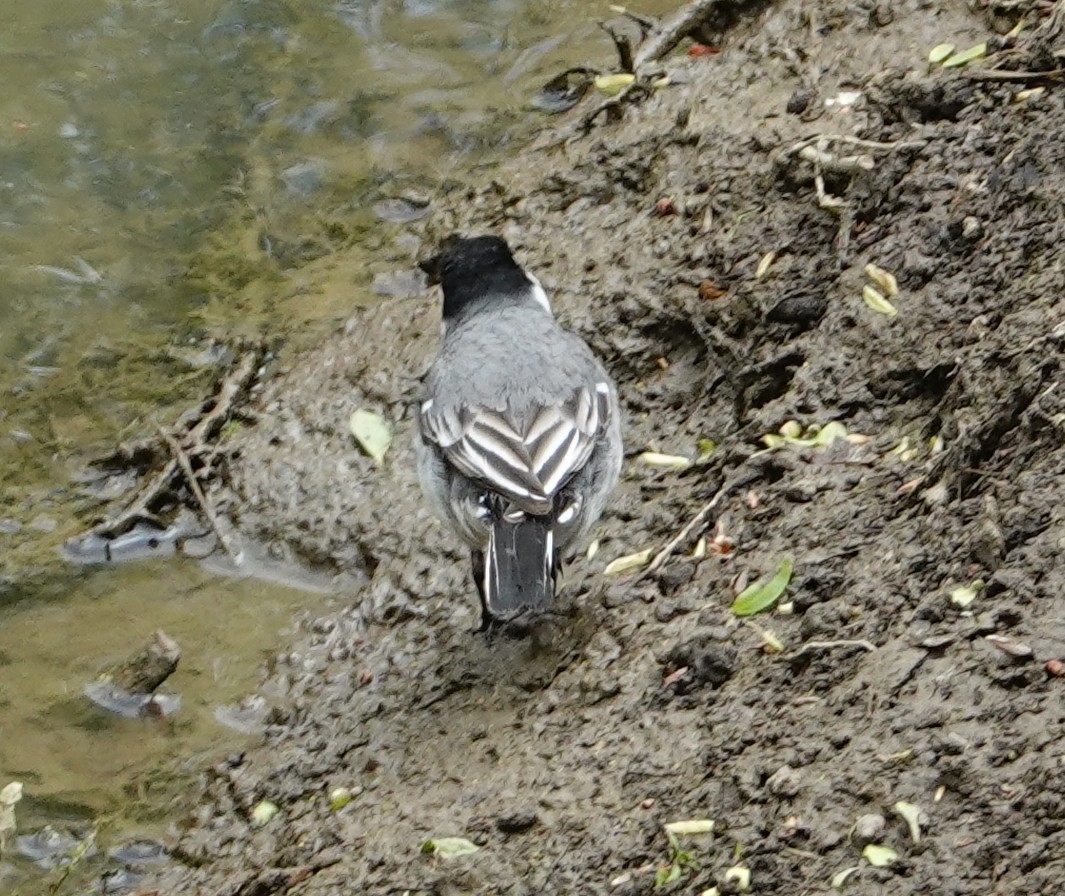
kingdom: Animalia
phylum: Chordata
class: Aves
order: Passeriformes
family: Motacillidae
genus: Motacilla
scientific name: Motacilla alba
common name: White wagtail
